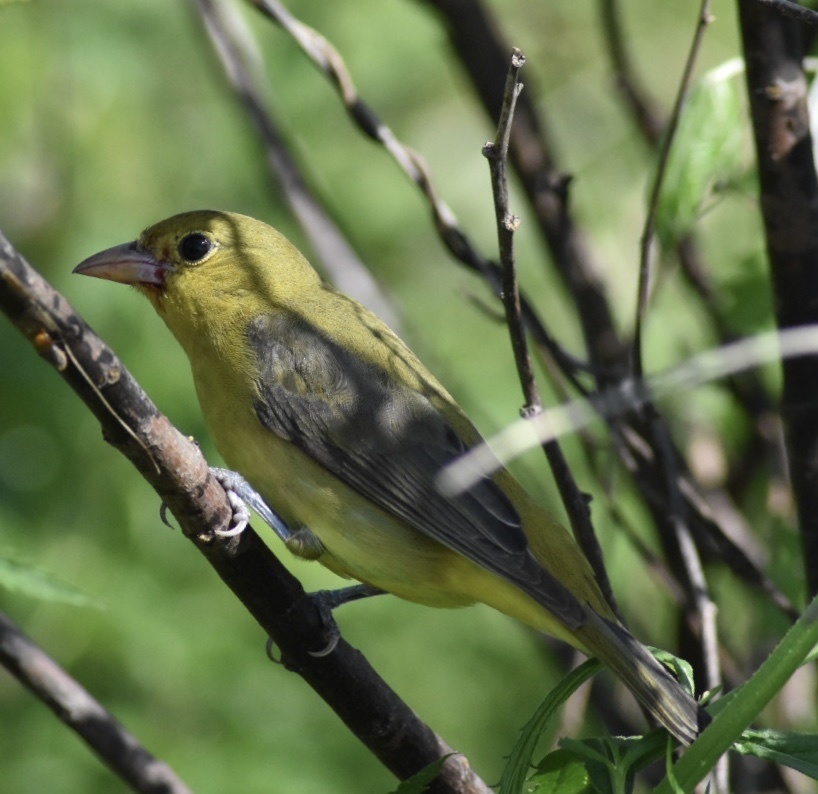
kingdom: Animalia
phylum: Chordata
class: Aves
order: Passeriformes
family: Cardinalidae
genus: Piranga
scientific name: Piranga olivacea
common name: Scarlet tanager
